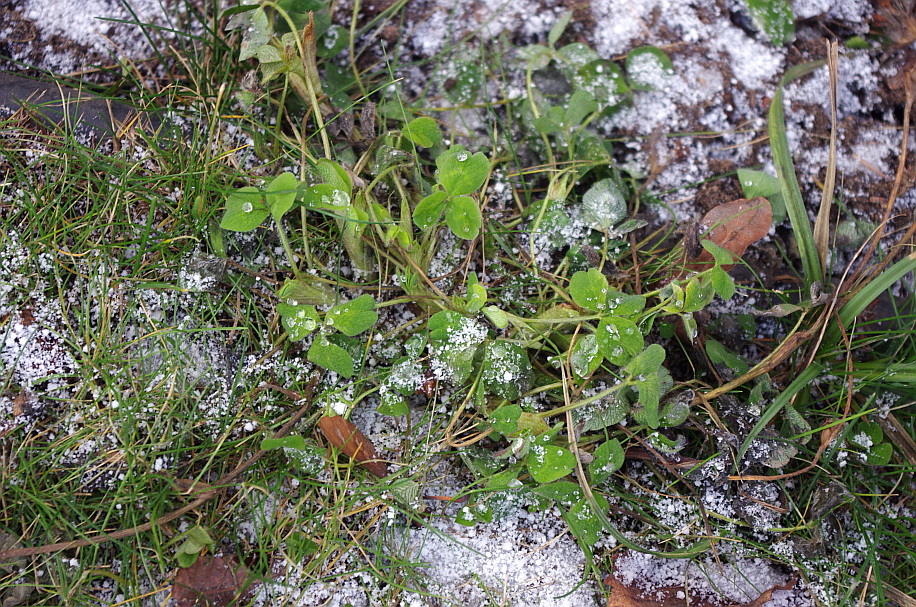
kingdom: Plantae
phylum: Tracheophyta
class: Magnoliopsida
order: Fabales
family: Fabaceae
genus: Trifolium
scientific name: Trifolium repens
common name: White clover
